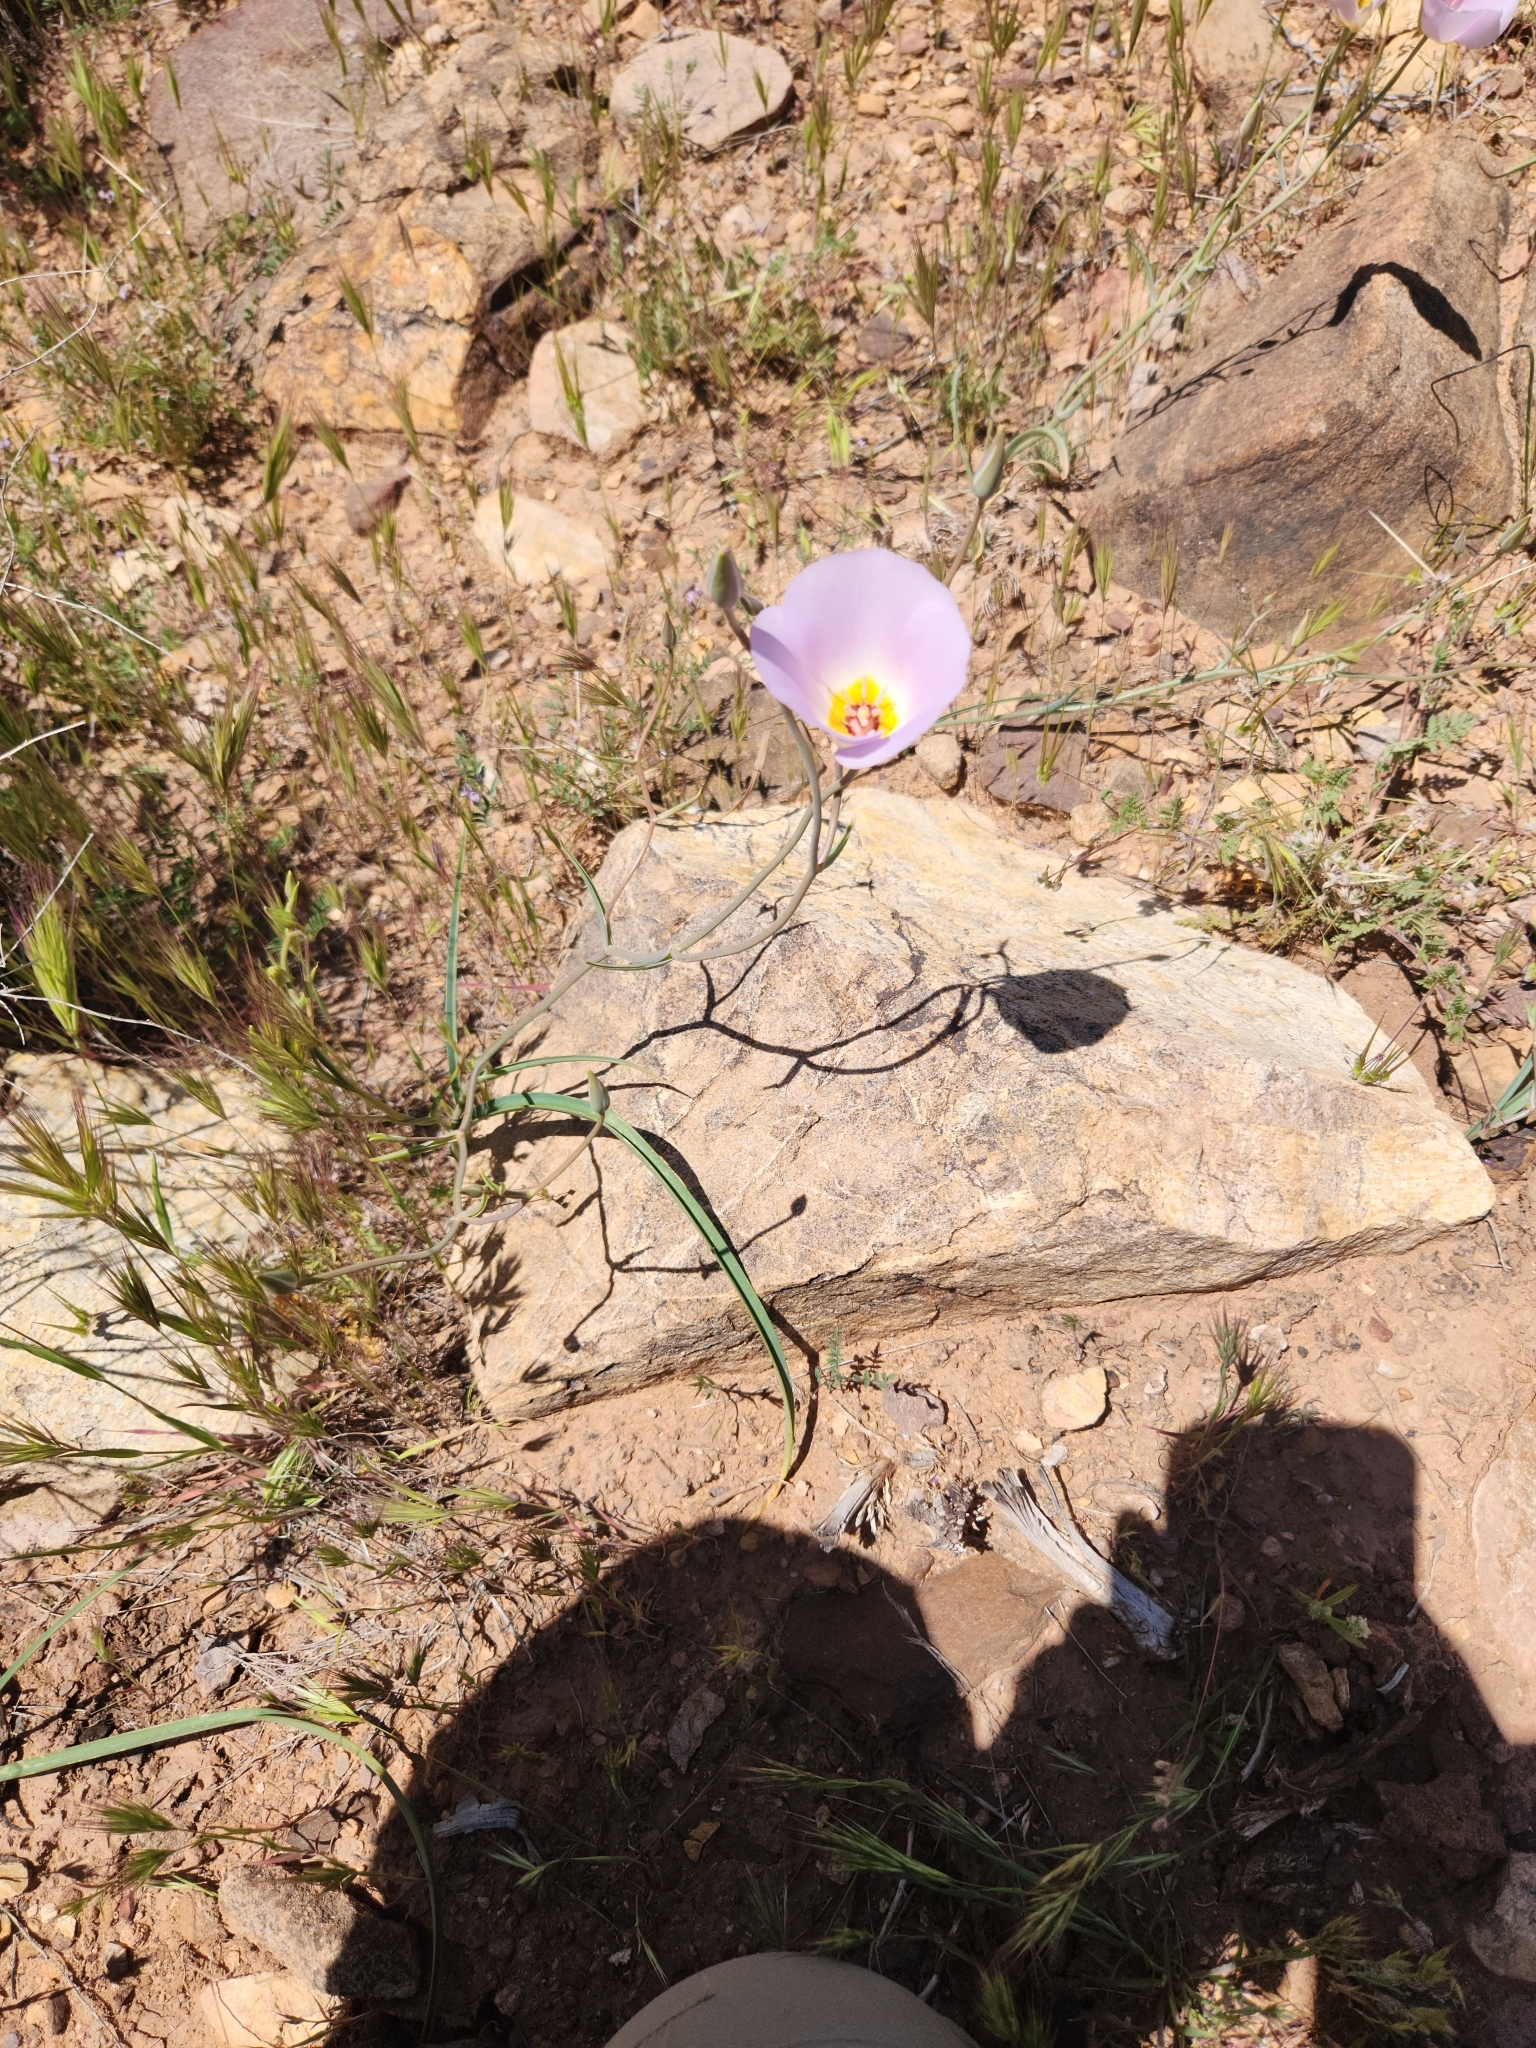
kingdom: Plantae
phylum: Tracheophyta
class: Liliopsida
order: Liliales
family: Liliaceae
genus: Calochortus
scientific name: Calochortus flexuosus
